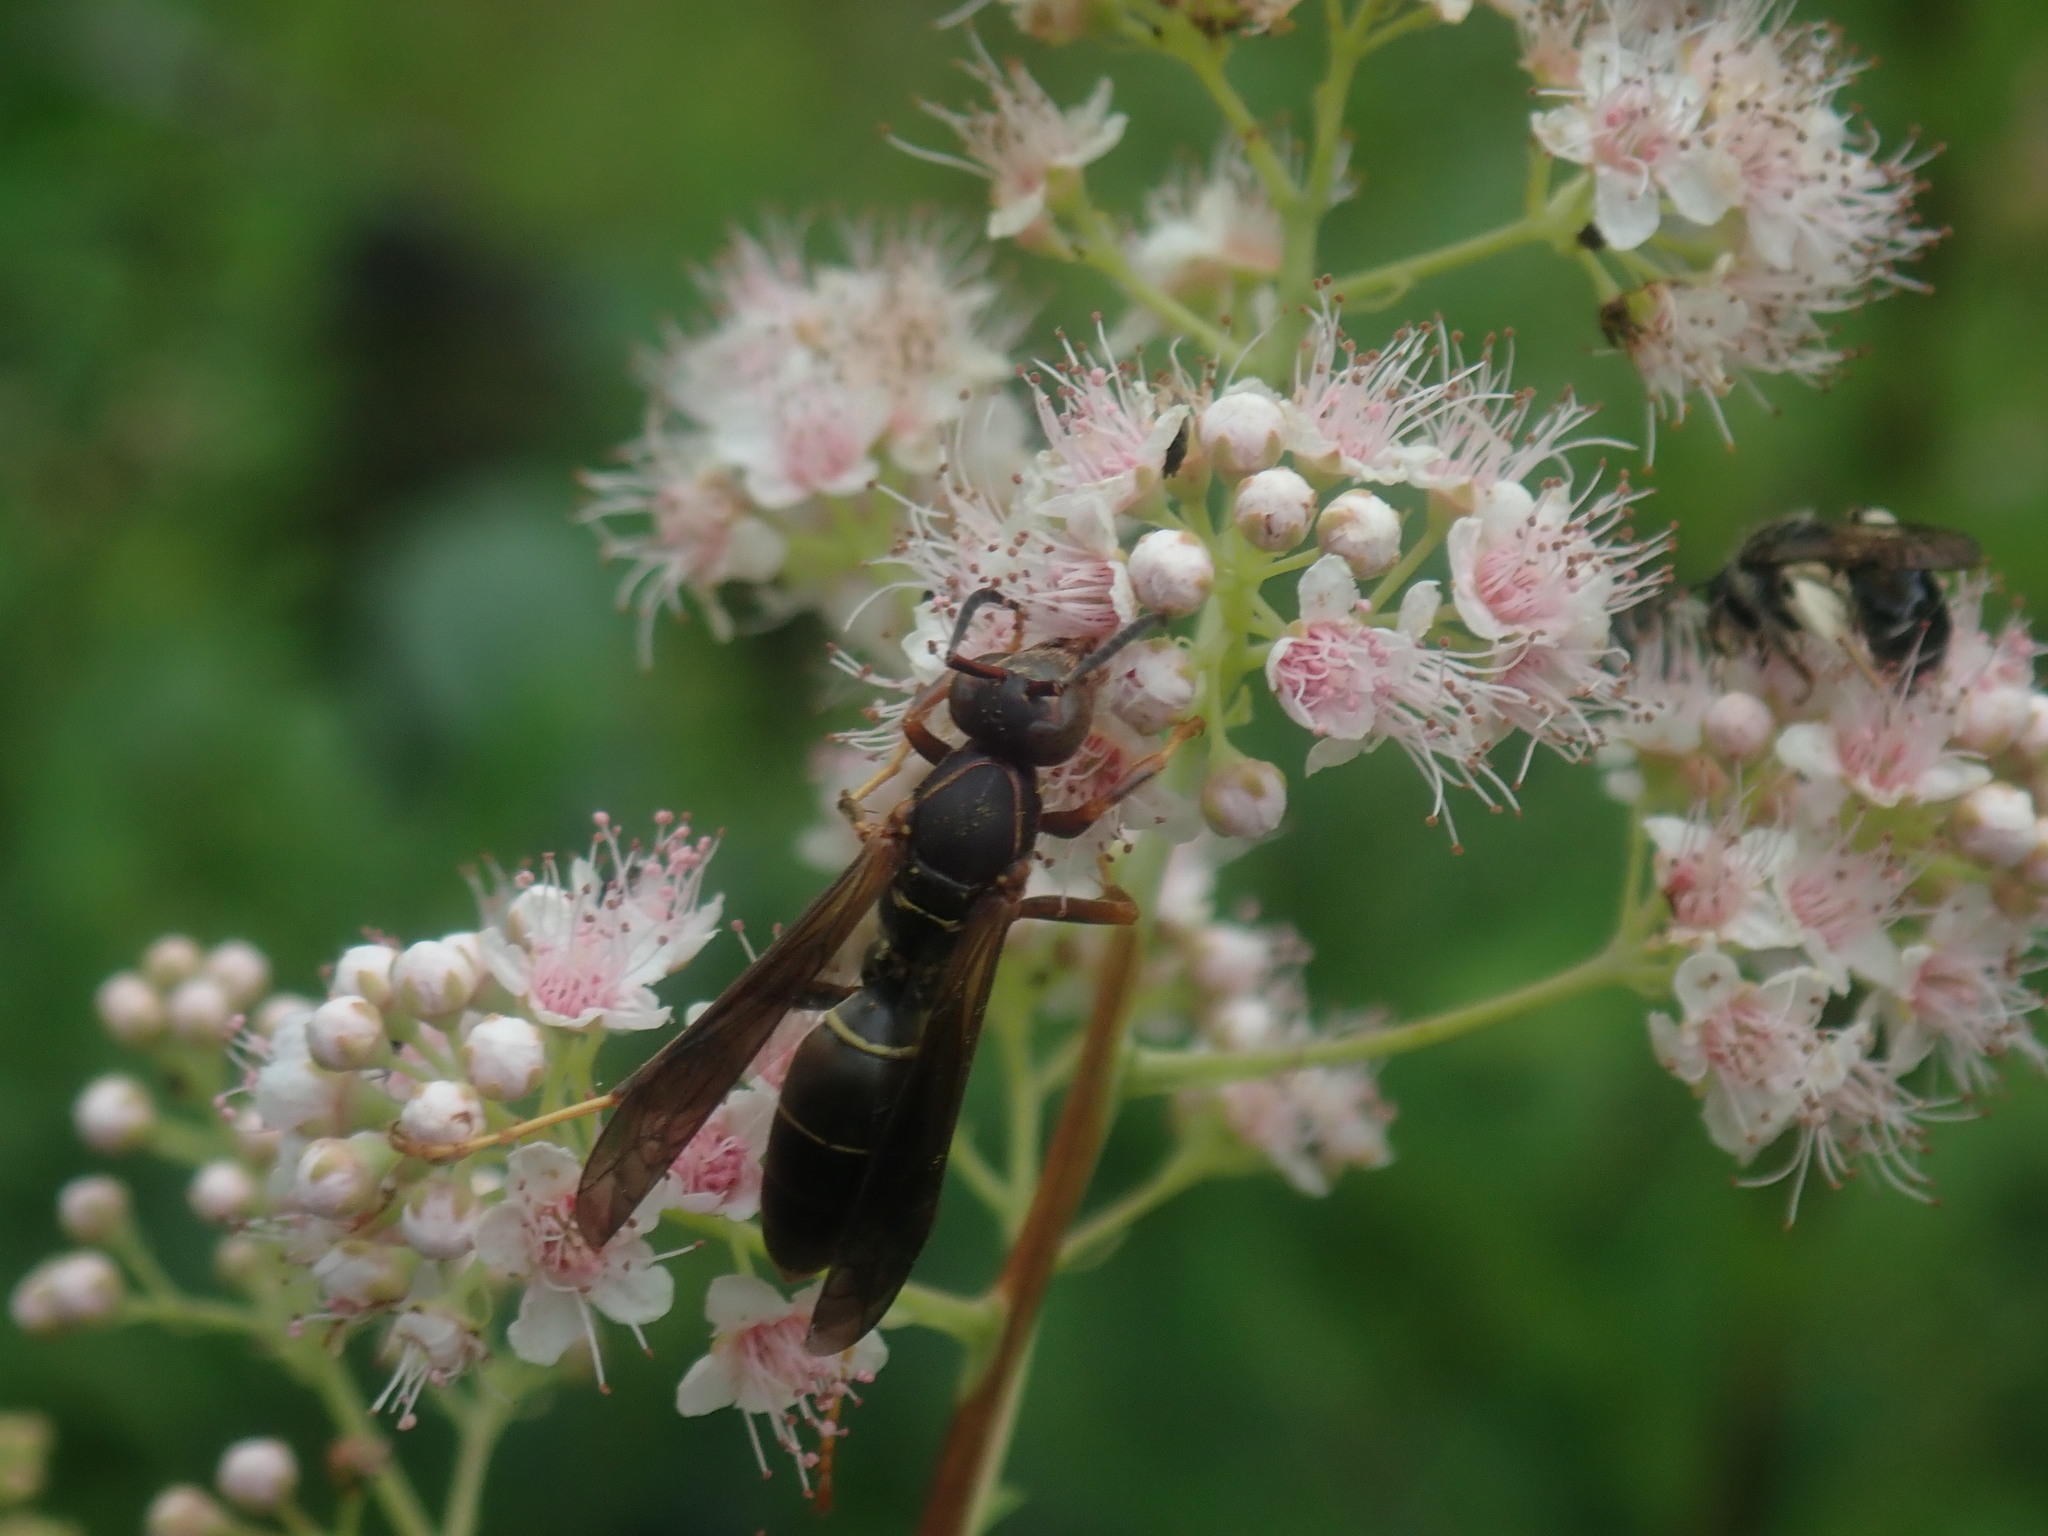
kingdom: Animalia
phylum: Arthropoda
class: Insecta
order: Hymenoptera
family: Eumenidae
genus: Polistes
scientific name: Polistes fuscatus
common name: Dark paper wasp
